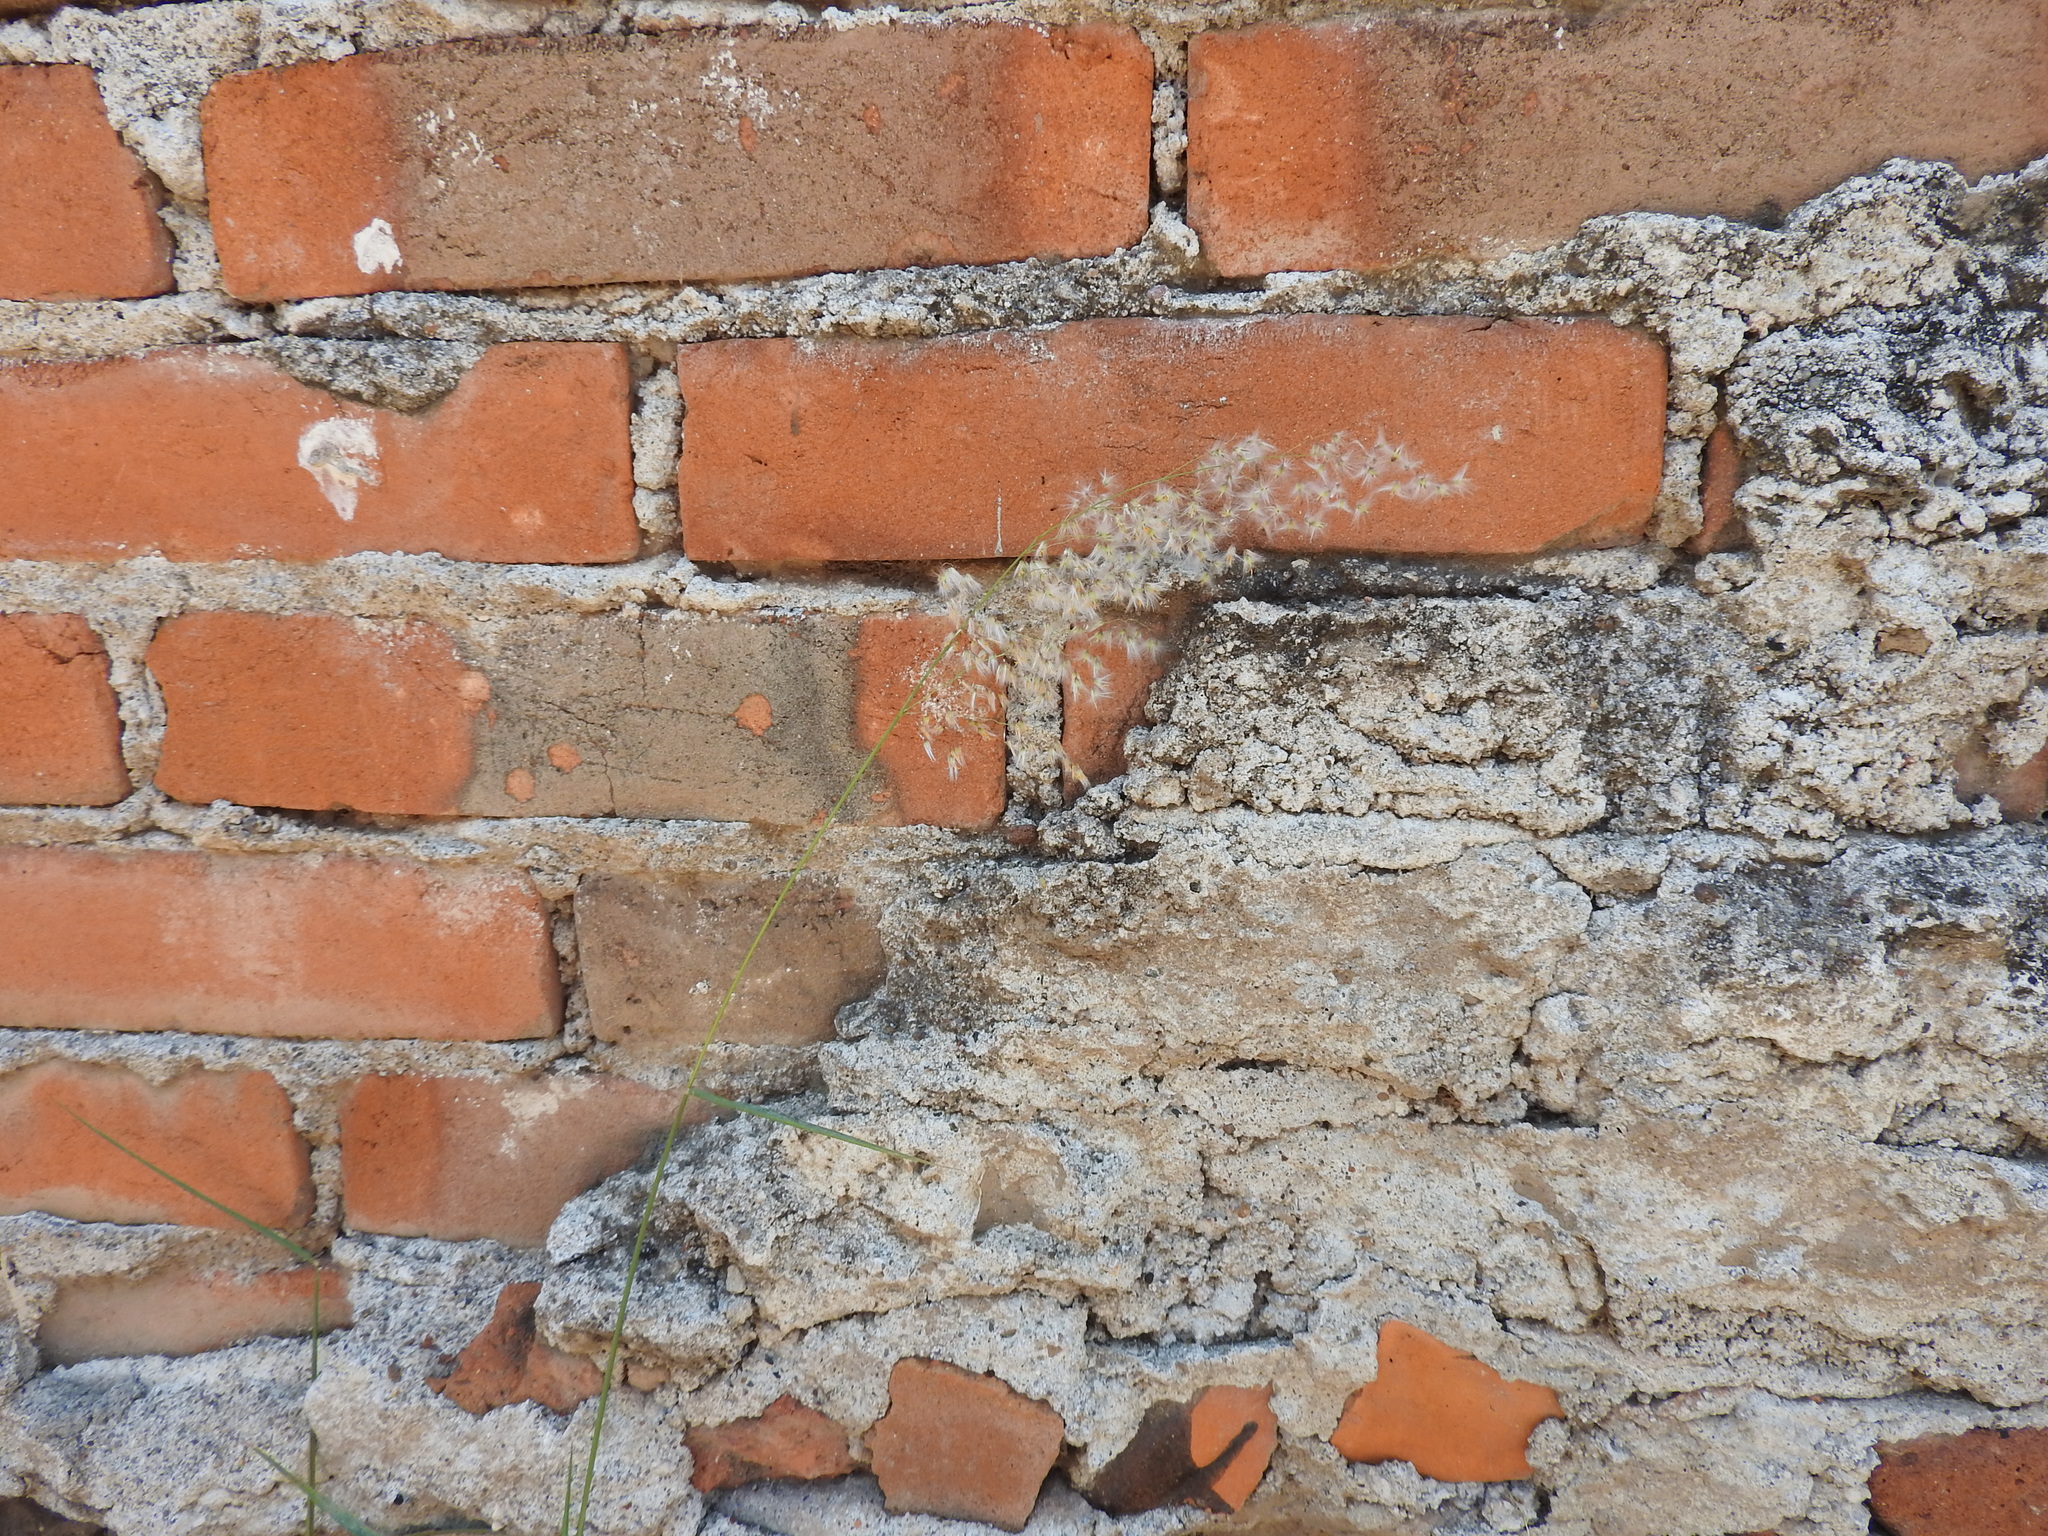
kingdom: Plantae
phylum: Tracheophyta
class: Liliopsida
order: Poales
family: Poaceae
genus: Melinis
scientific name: Melinis repens
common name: Rose natal grass
